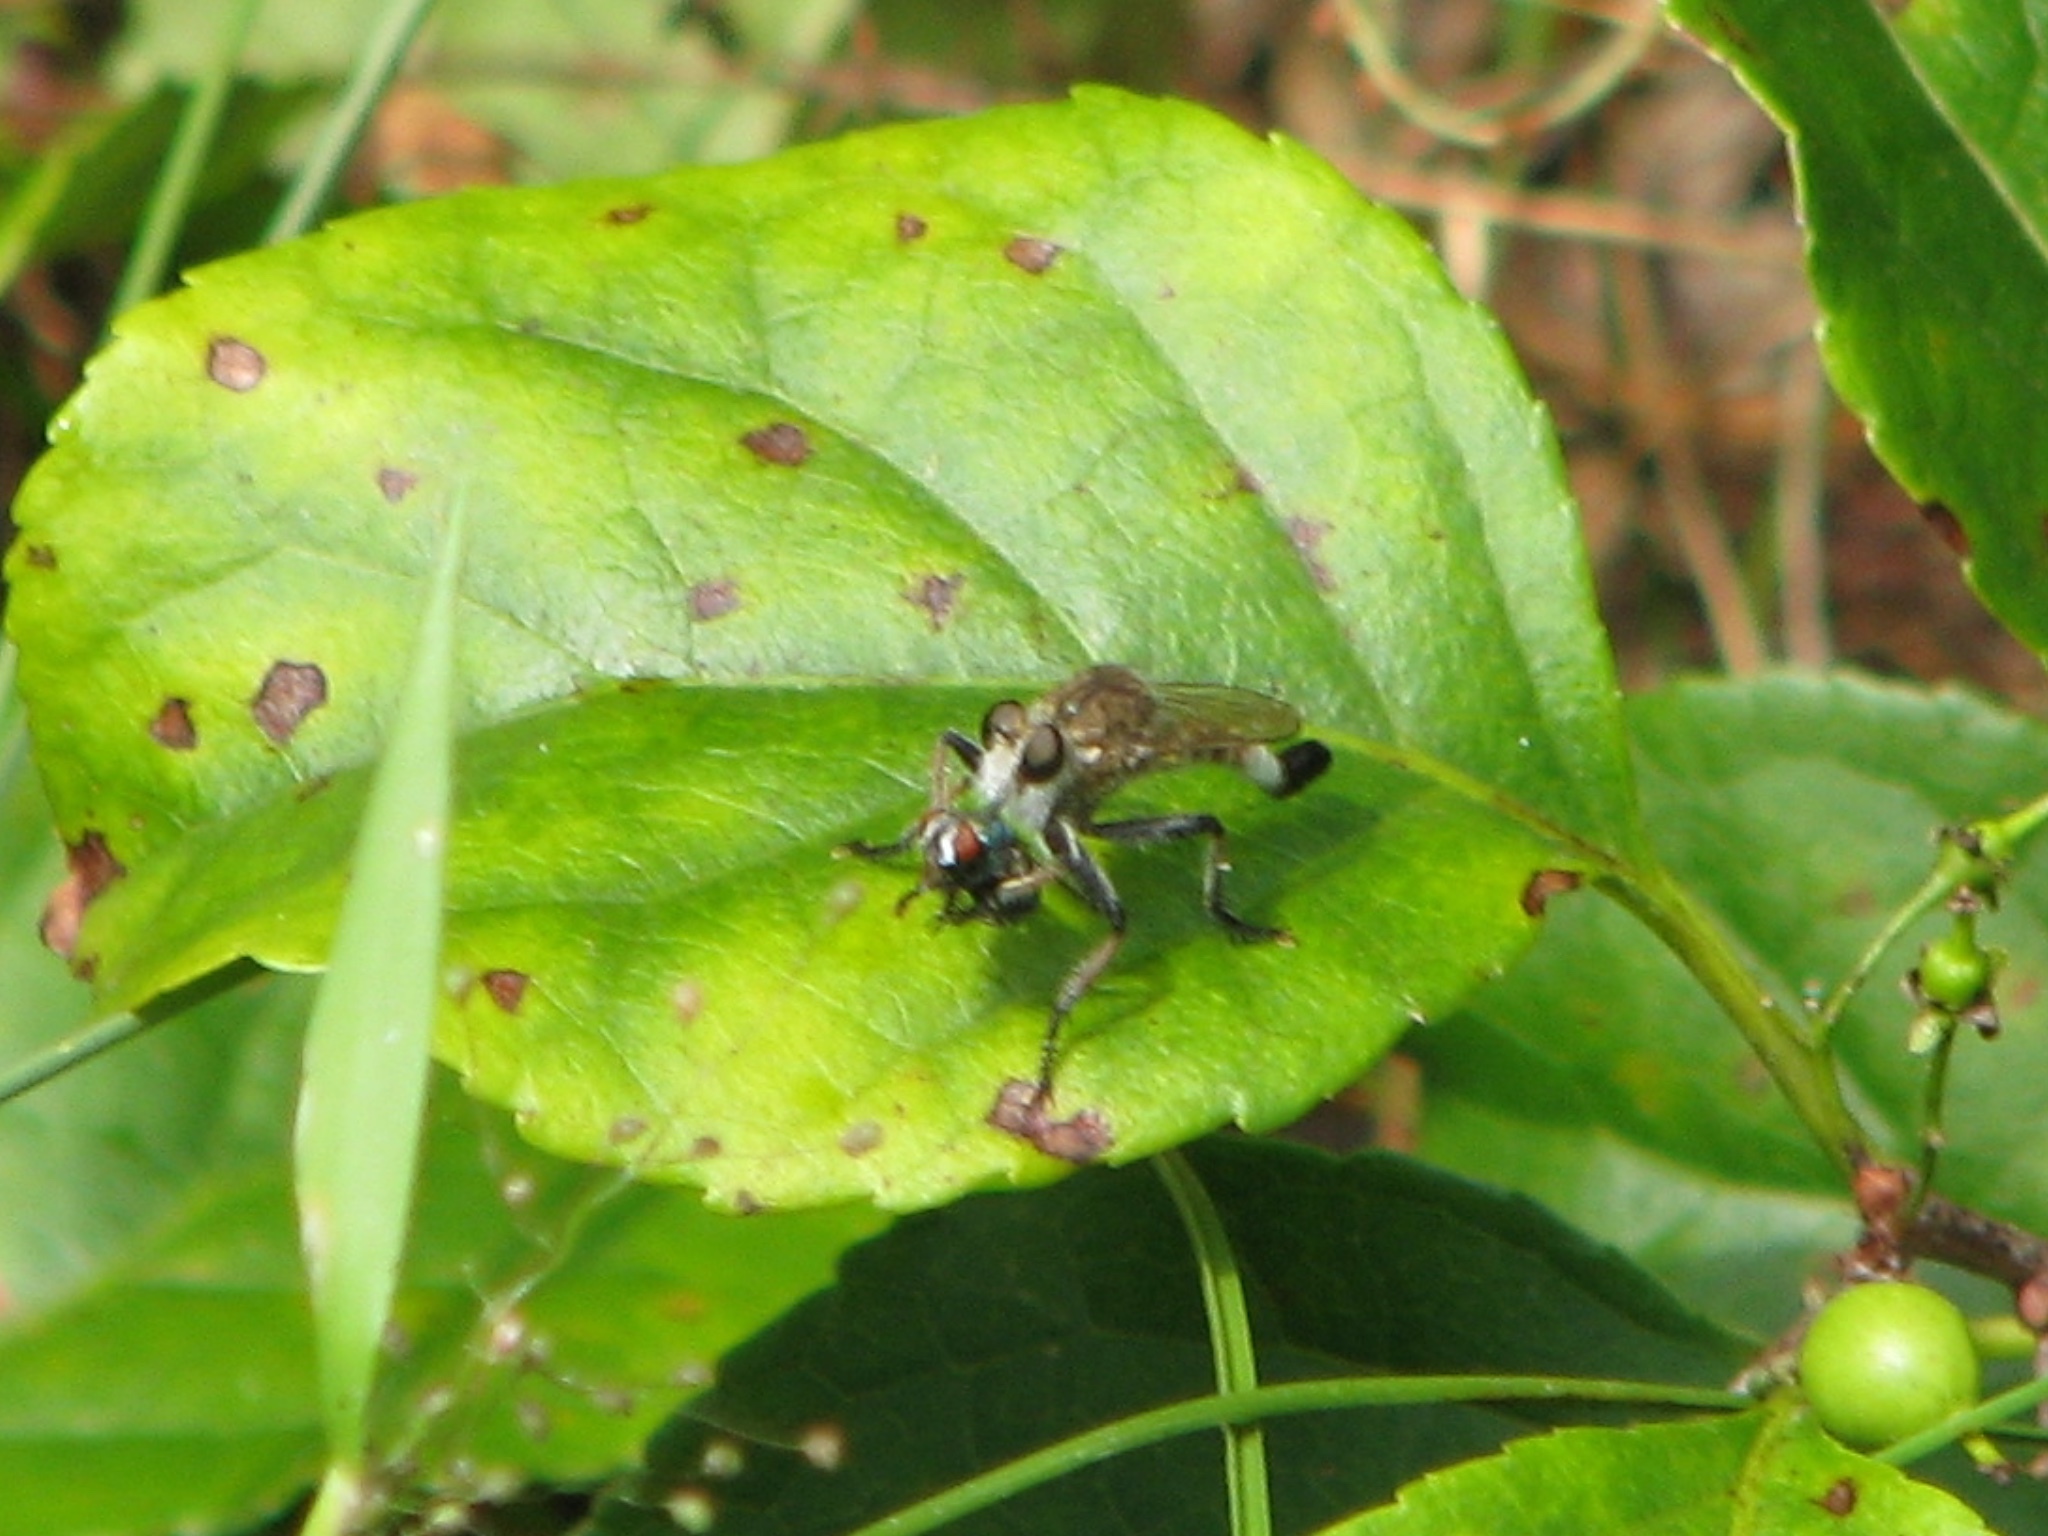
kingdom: Animalia
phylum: Arthropoda
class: Insecta
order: Diptera
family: Asilidae
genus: Efferia
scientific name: Efferia albibarbis
